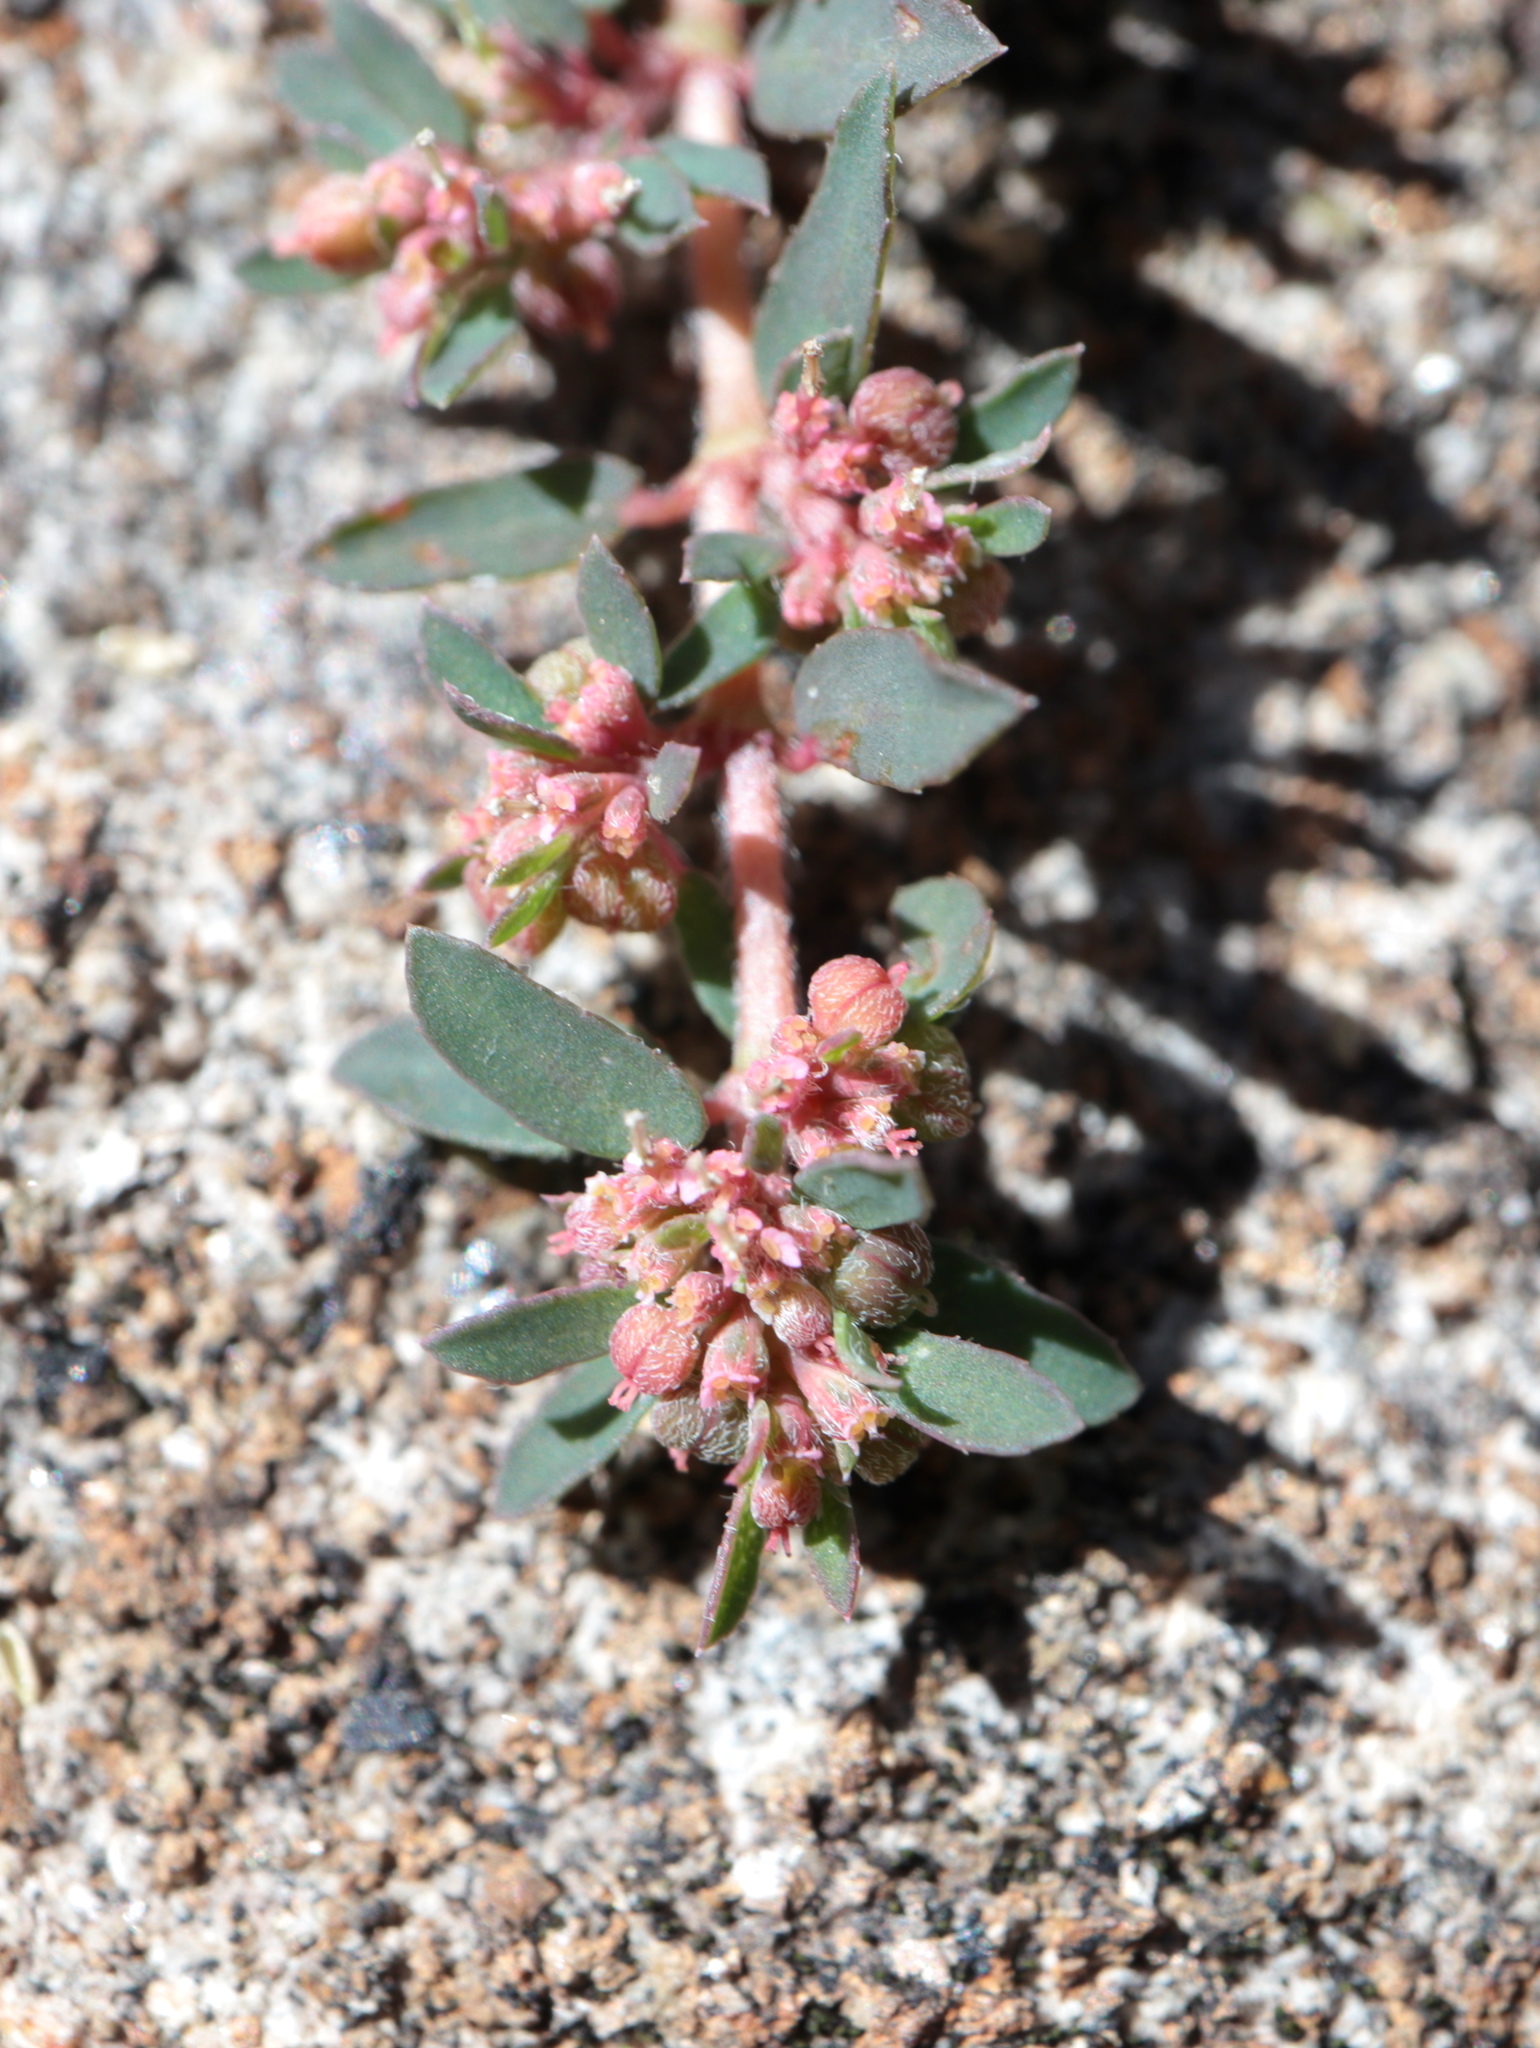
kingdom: Plantae
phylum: Tracheophyta
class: Magnoliopsida
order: Malpighiales
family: Euphorbiaceae
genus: Euphorbia
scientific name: Euphorbia maculata
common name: Spotted spurge
